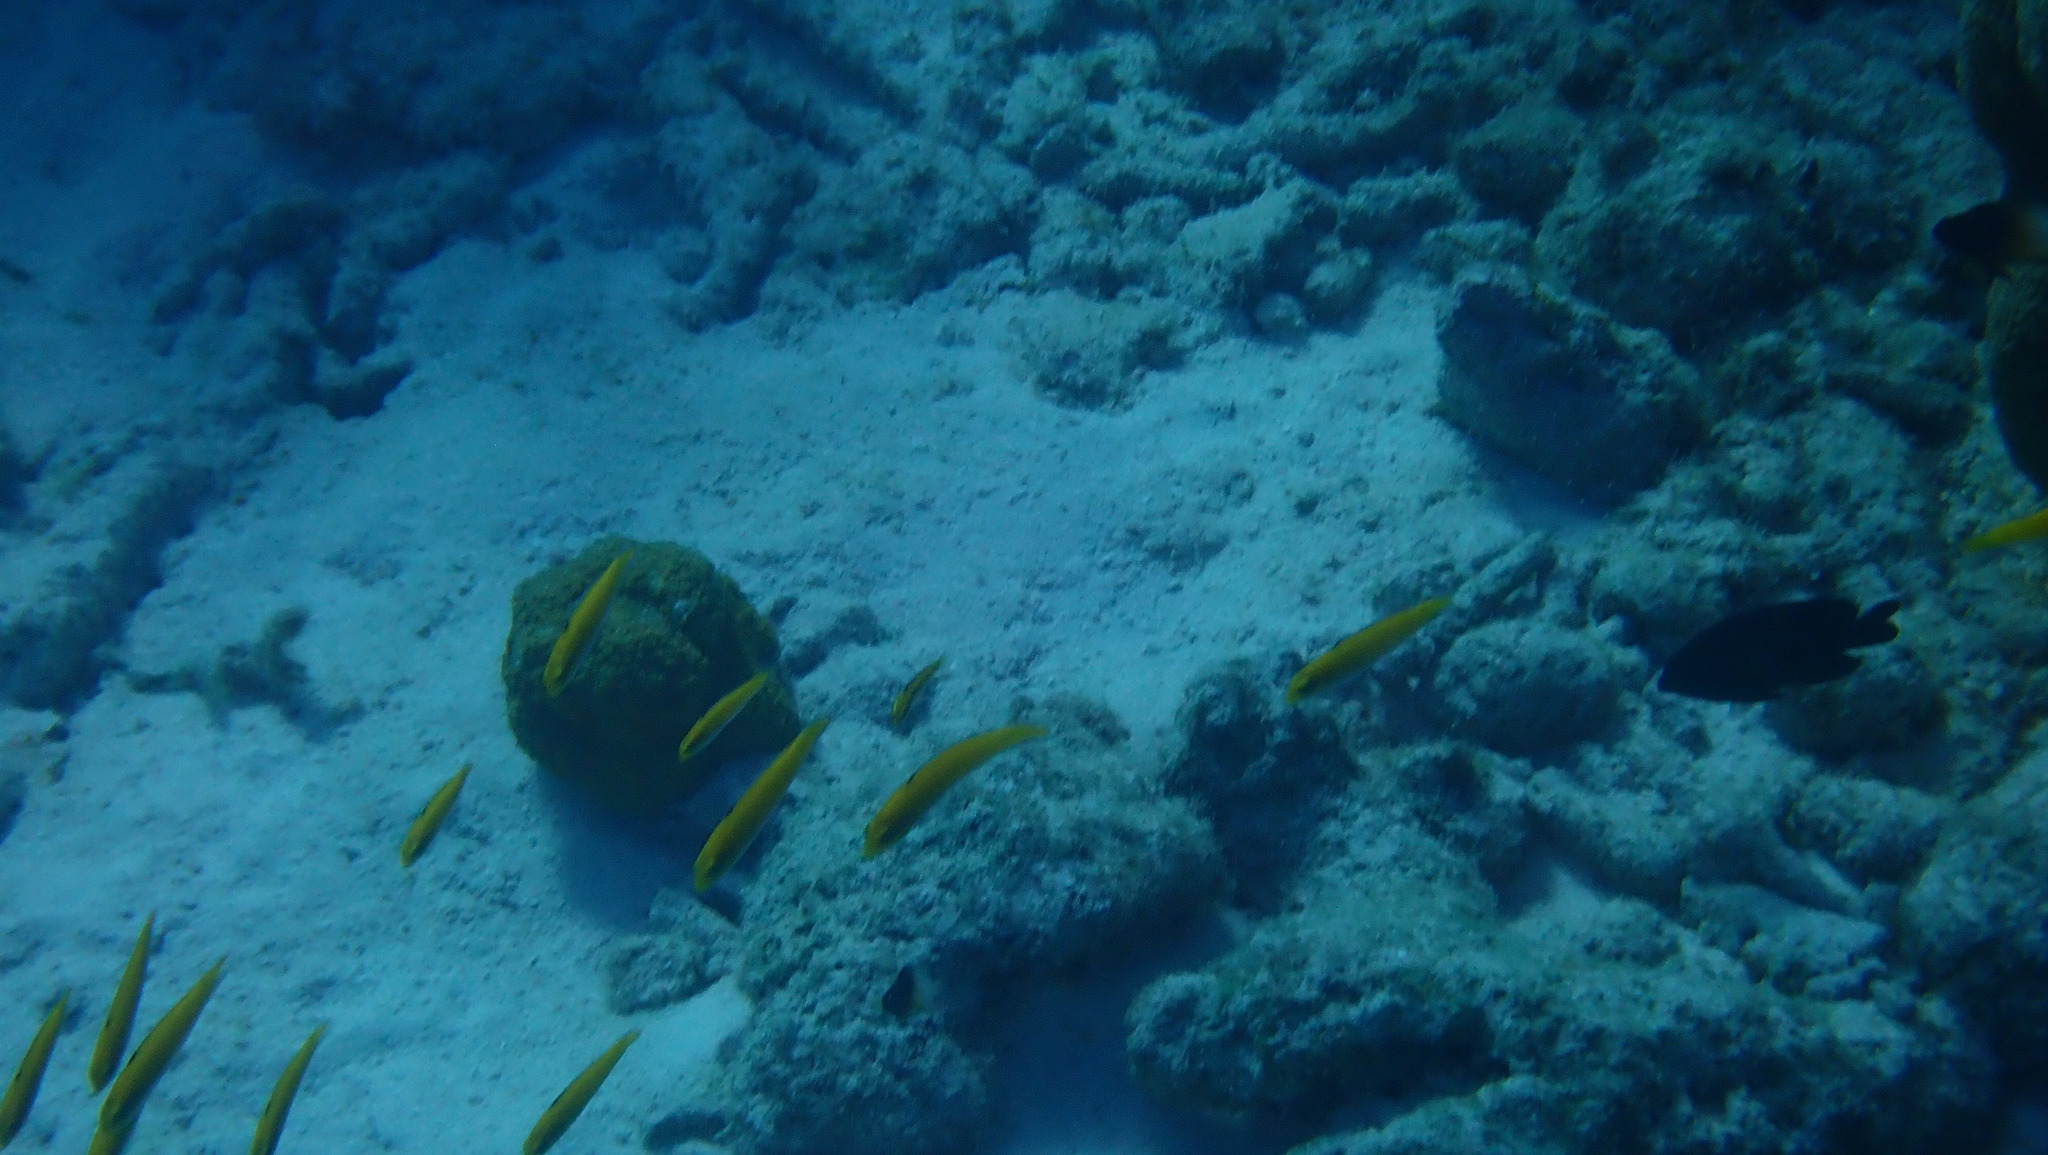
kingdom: Animalia
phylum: Chordata
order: Perciformes
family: Labridae
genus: Thalassoma
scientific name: Thalassoma bifasciatum
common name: Bluehead wrasse
